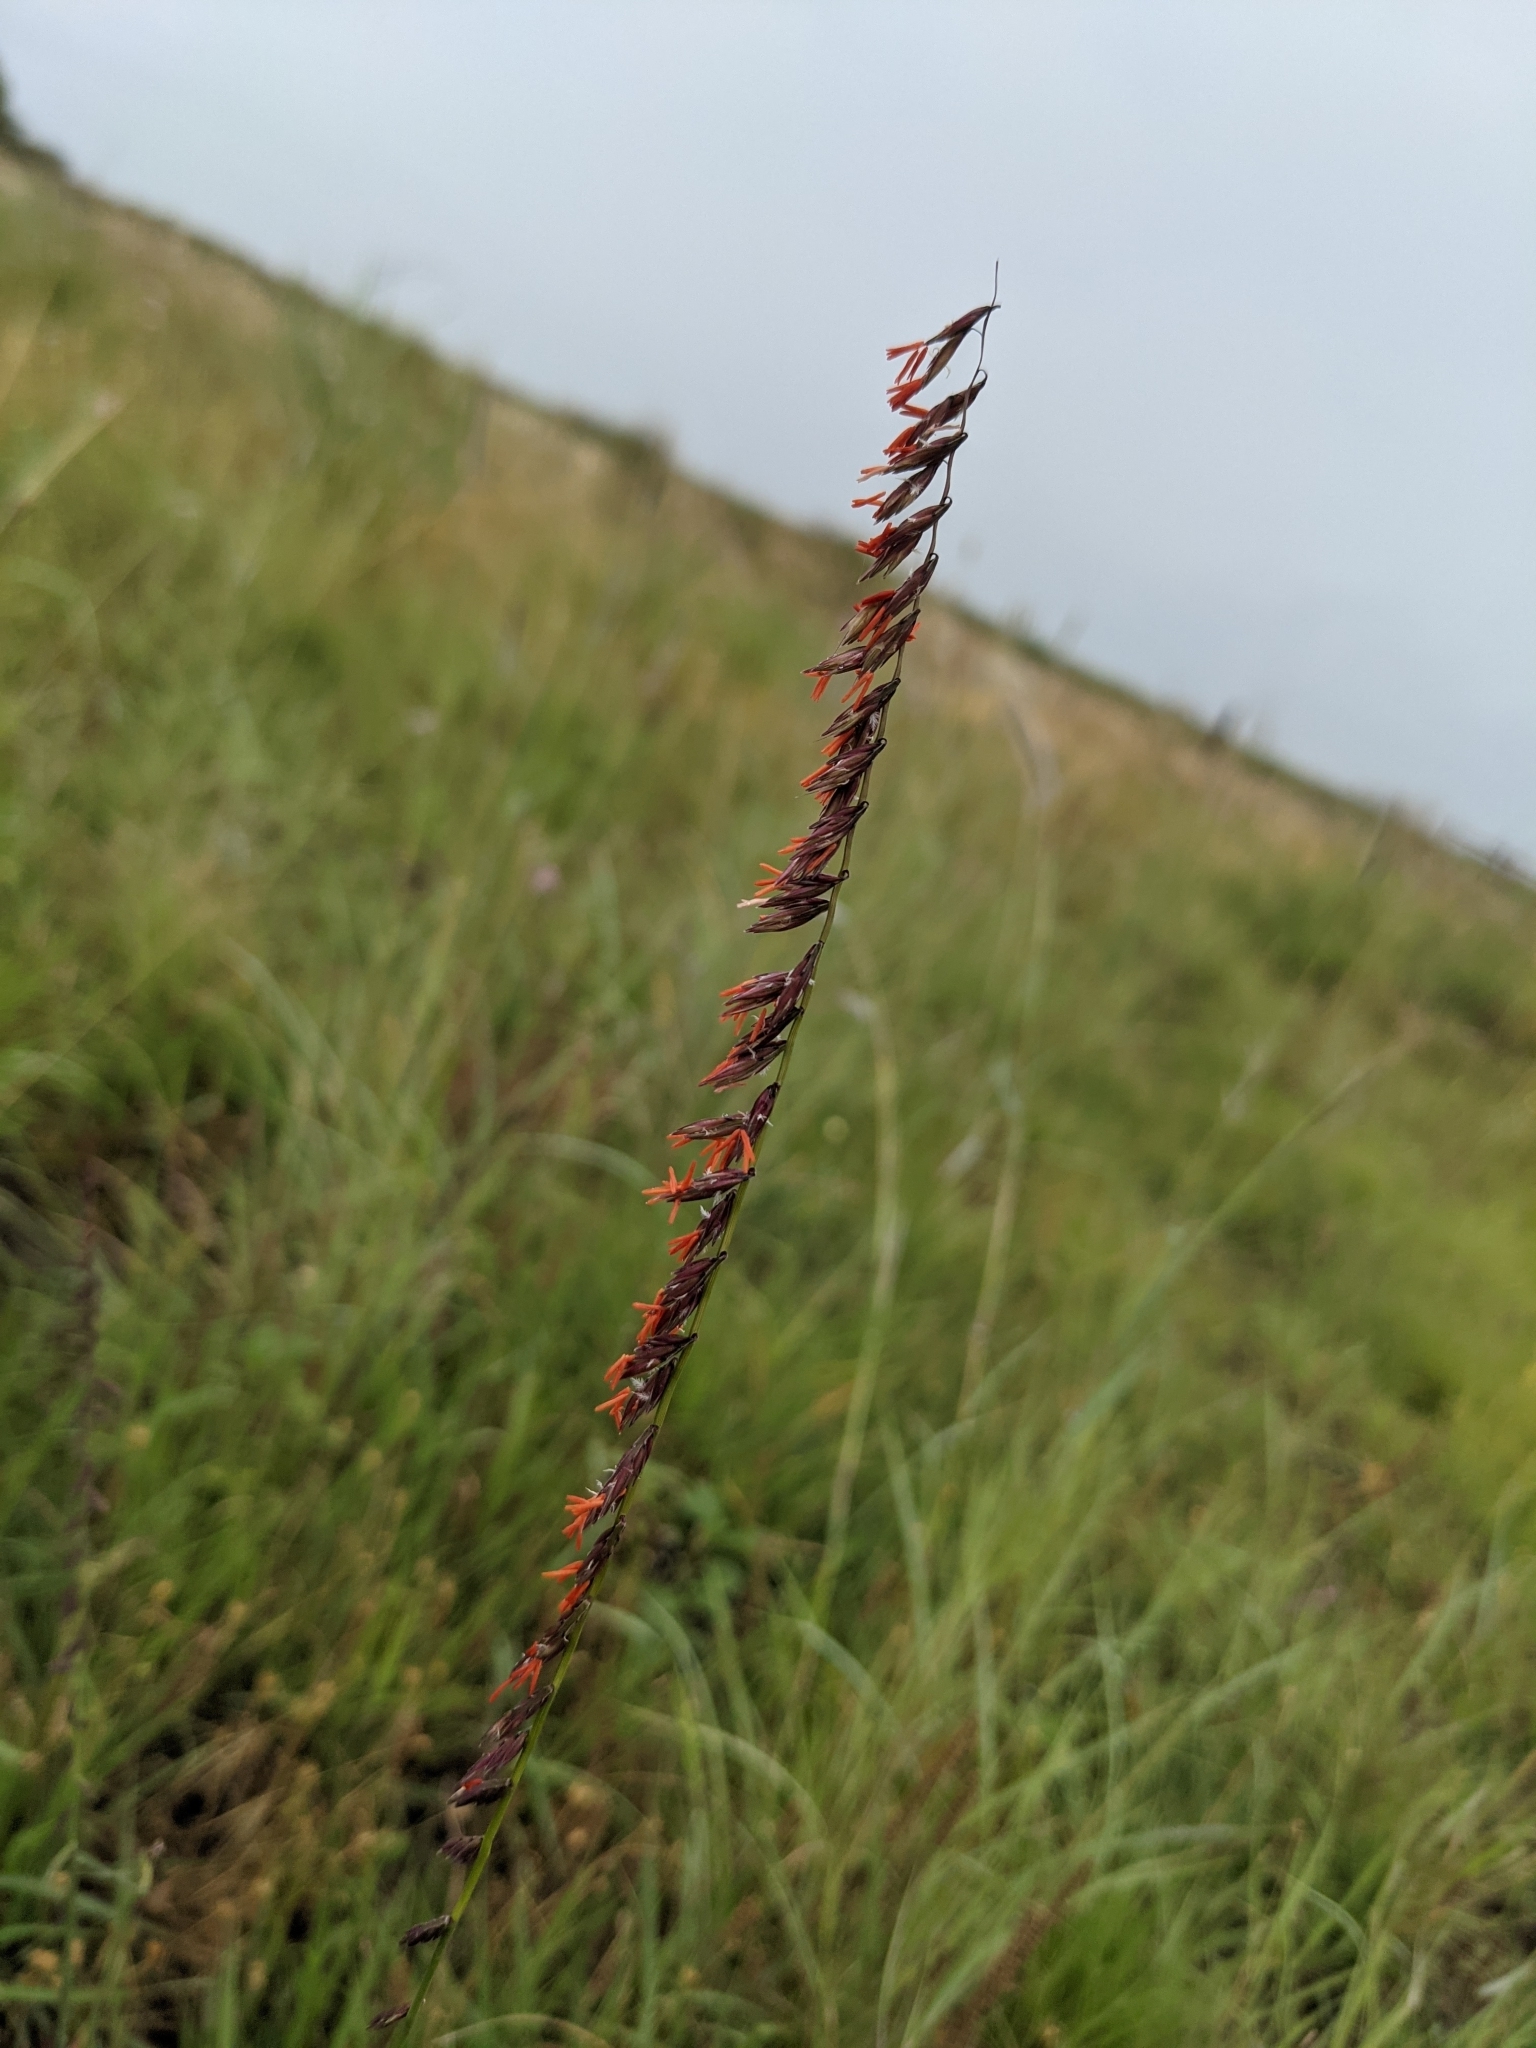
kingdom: Plantae
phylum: Tracheophyta
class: Liliopsida
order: Poales
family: Poaceae
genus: Bouteloua
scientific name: Bouteloua curtipendula
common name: Side-oats grama
